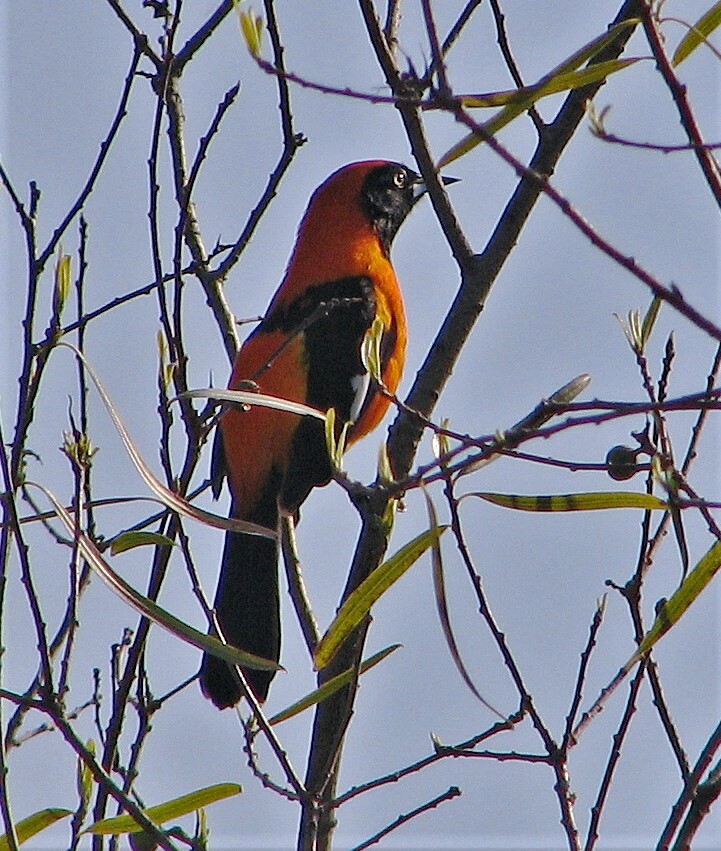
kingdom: Animalia
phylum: Chordata
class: Aves
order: Passeriformes
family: Icteridae
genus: Icterus
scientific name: Icterus icterus
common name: Venezuelan troupial
